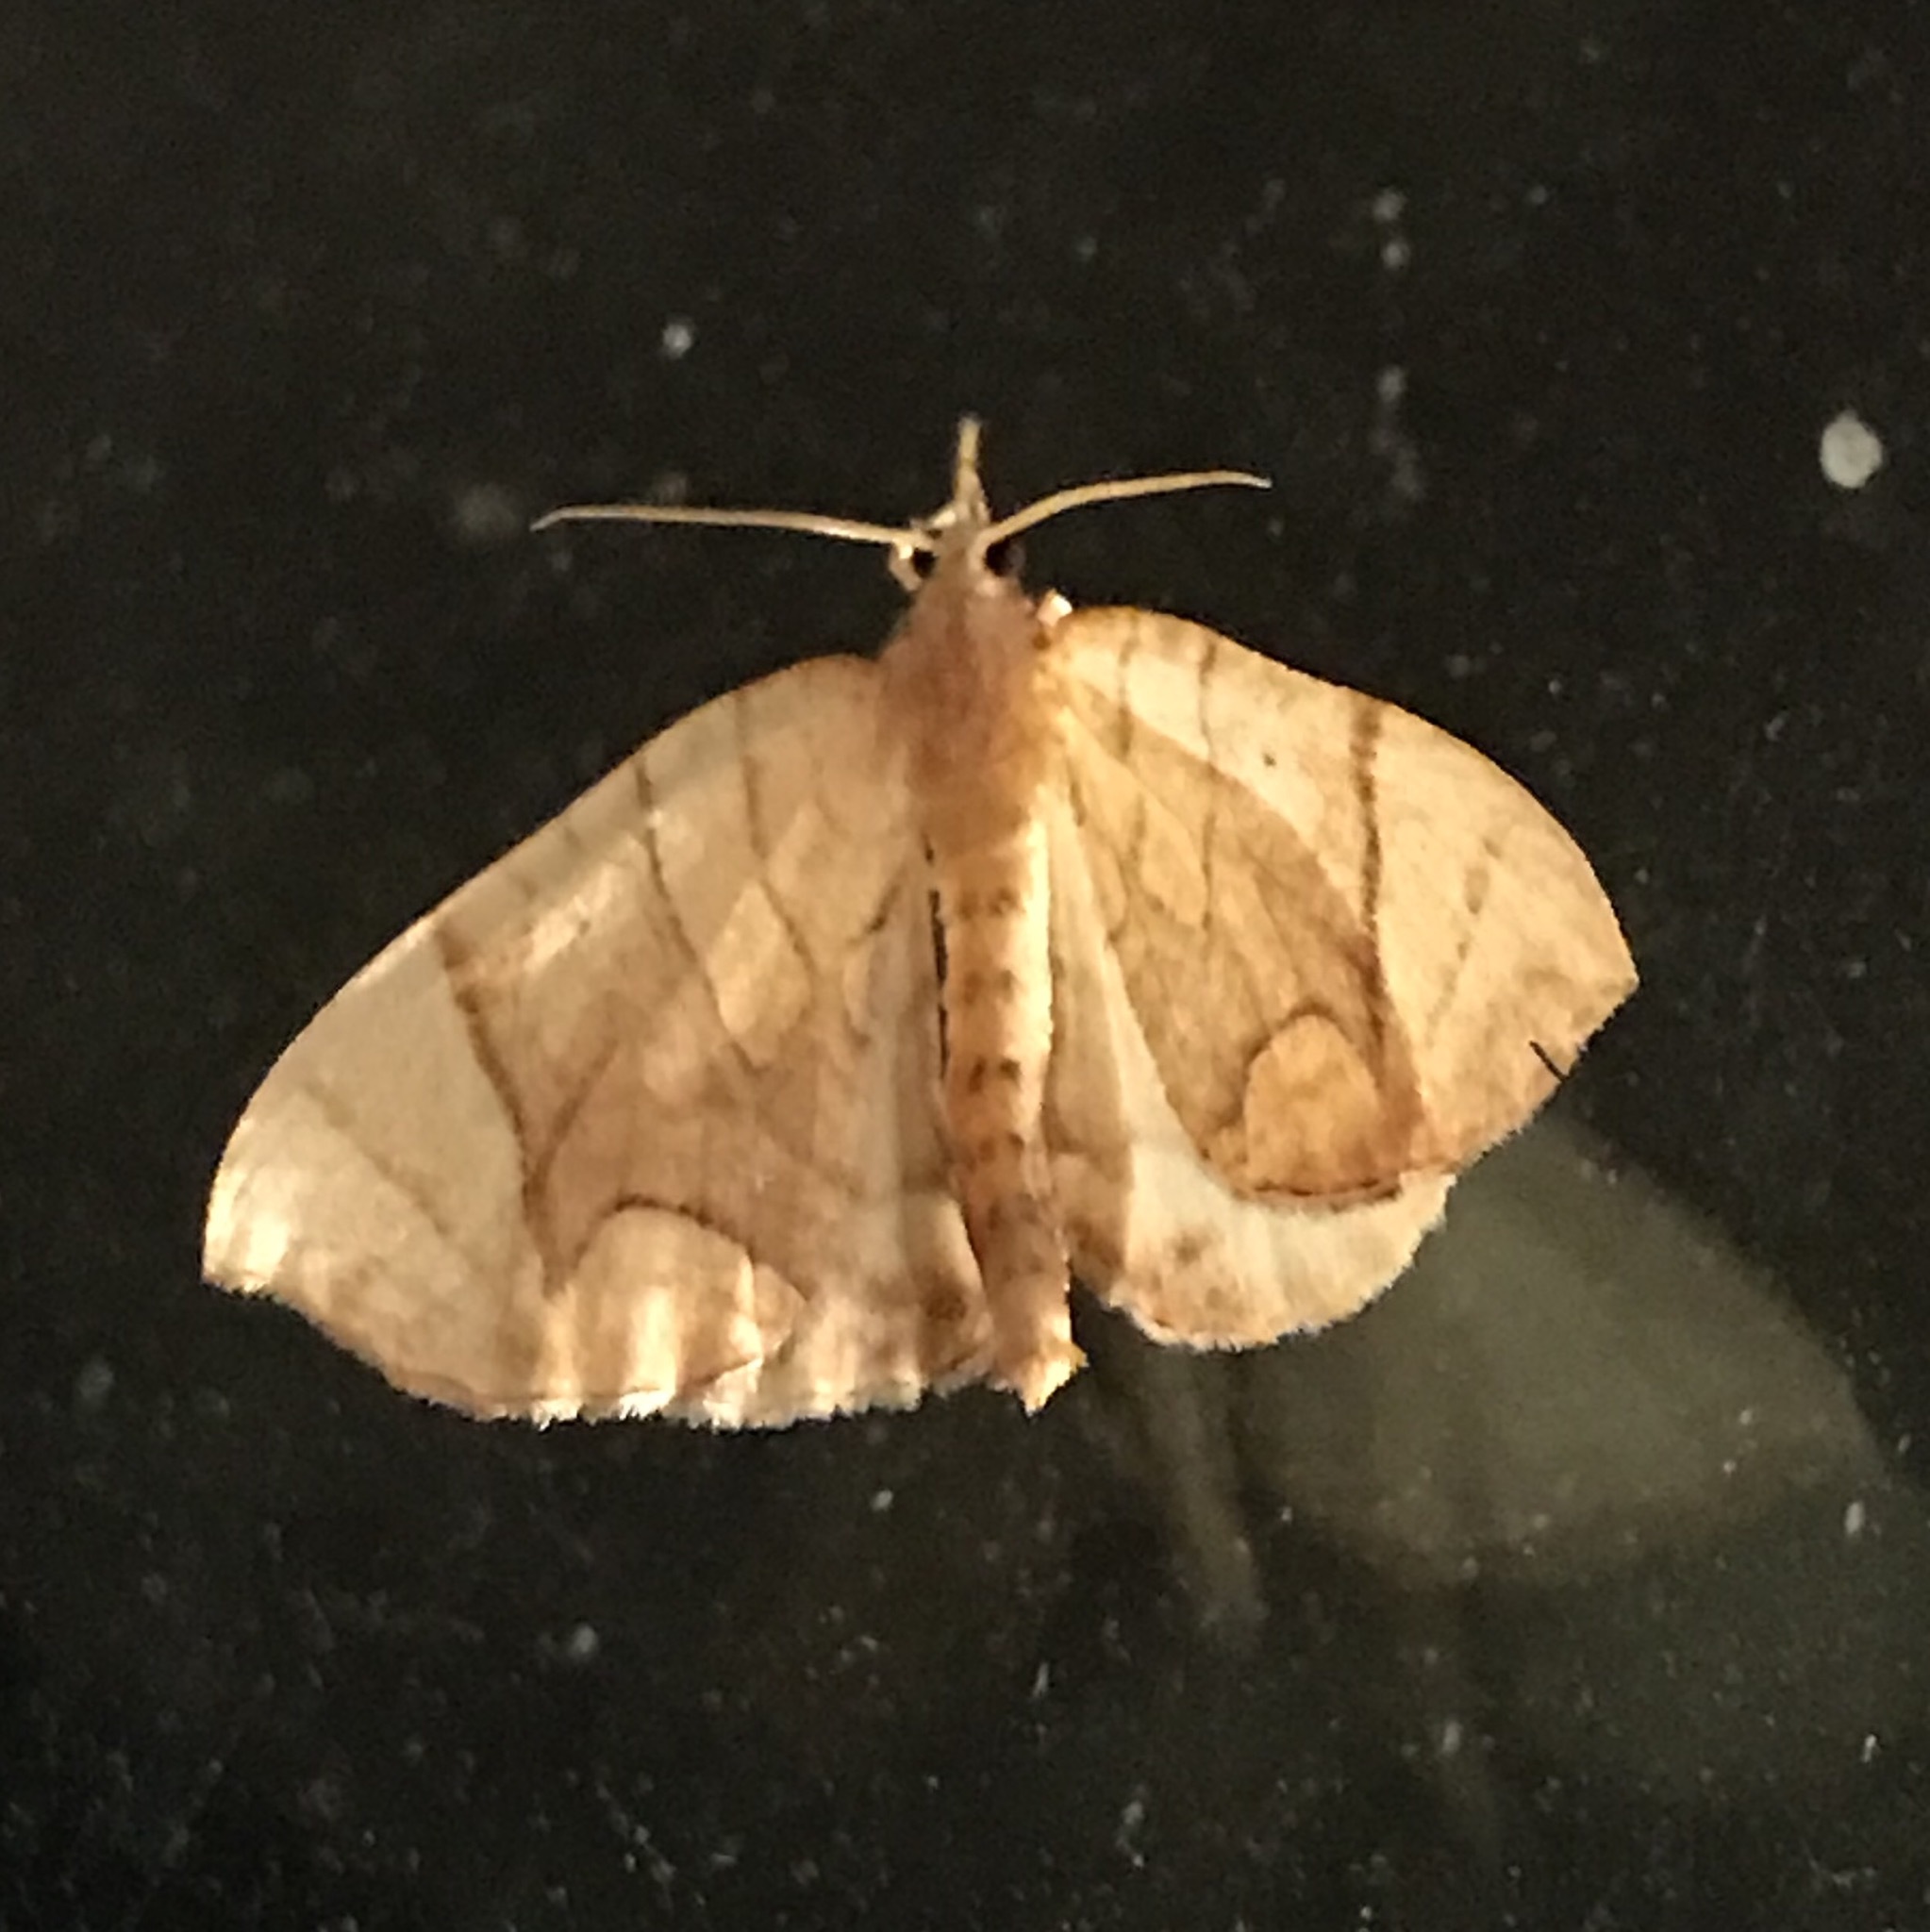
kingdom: Animalia
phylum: Arthropoda
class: Insecta
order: Lepidoptera
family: Geometridae
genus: Eulithis
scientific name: Eulithis
